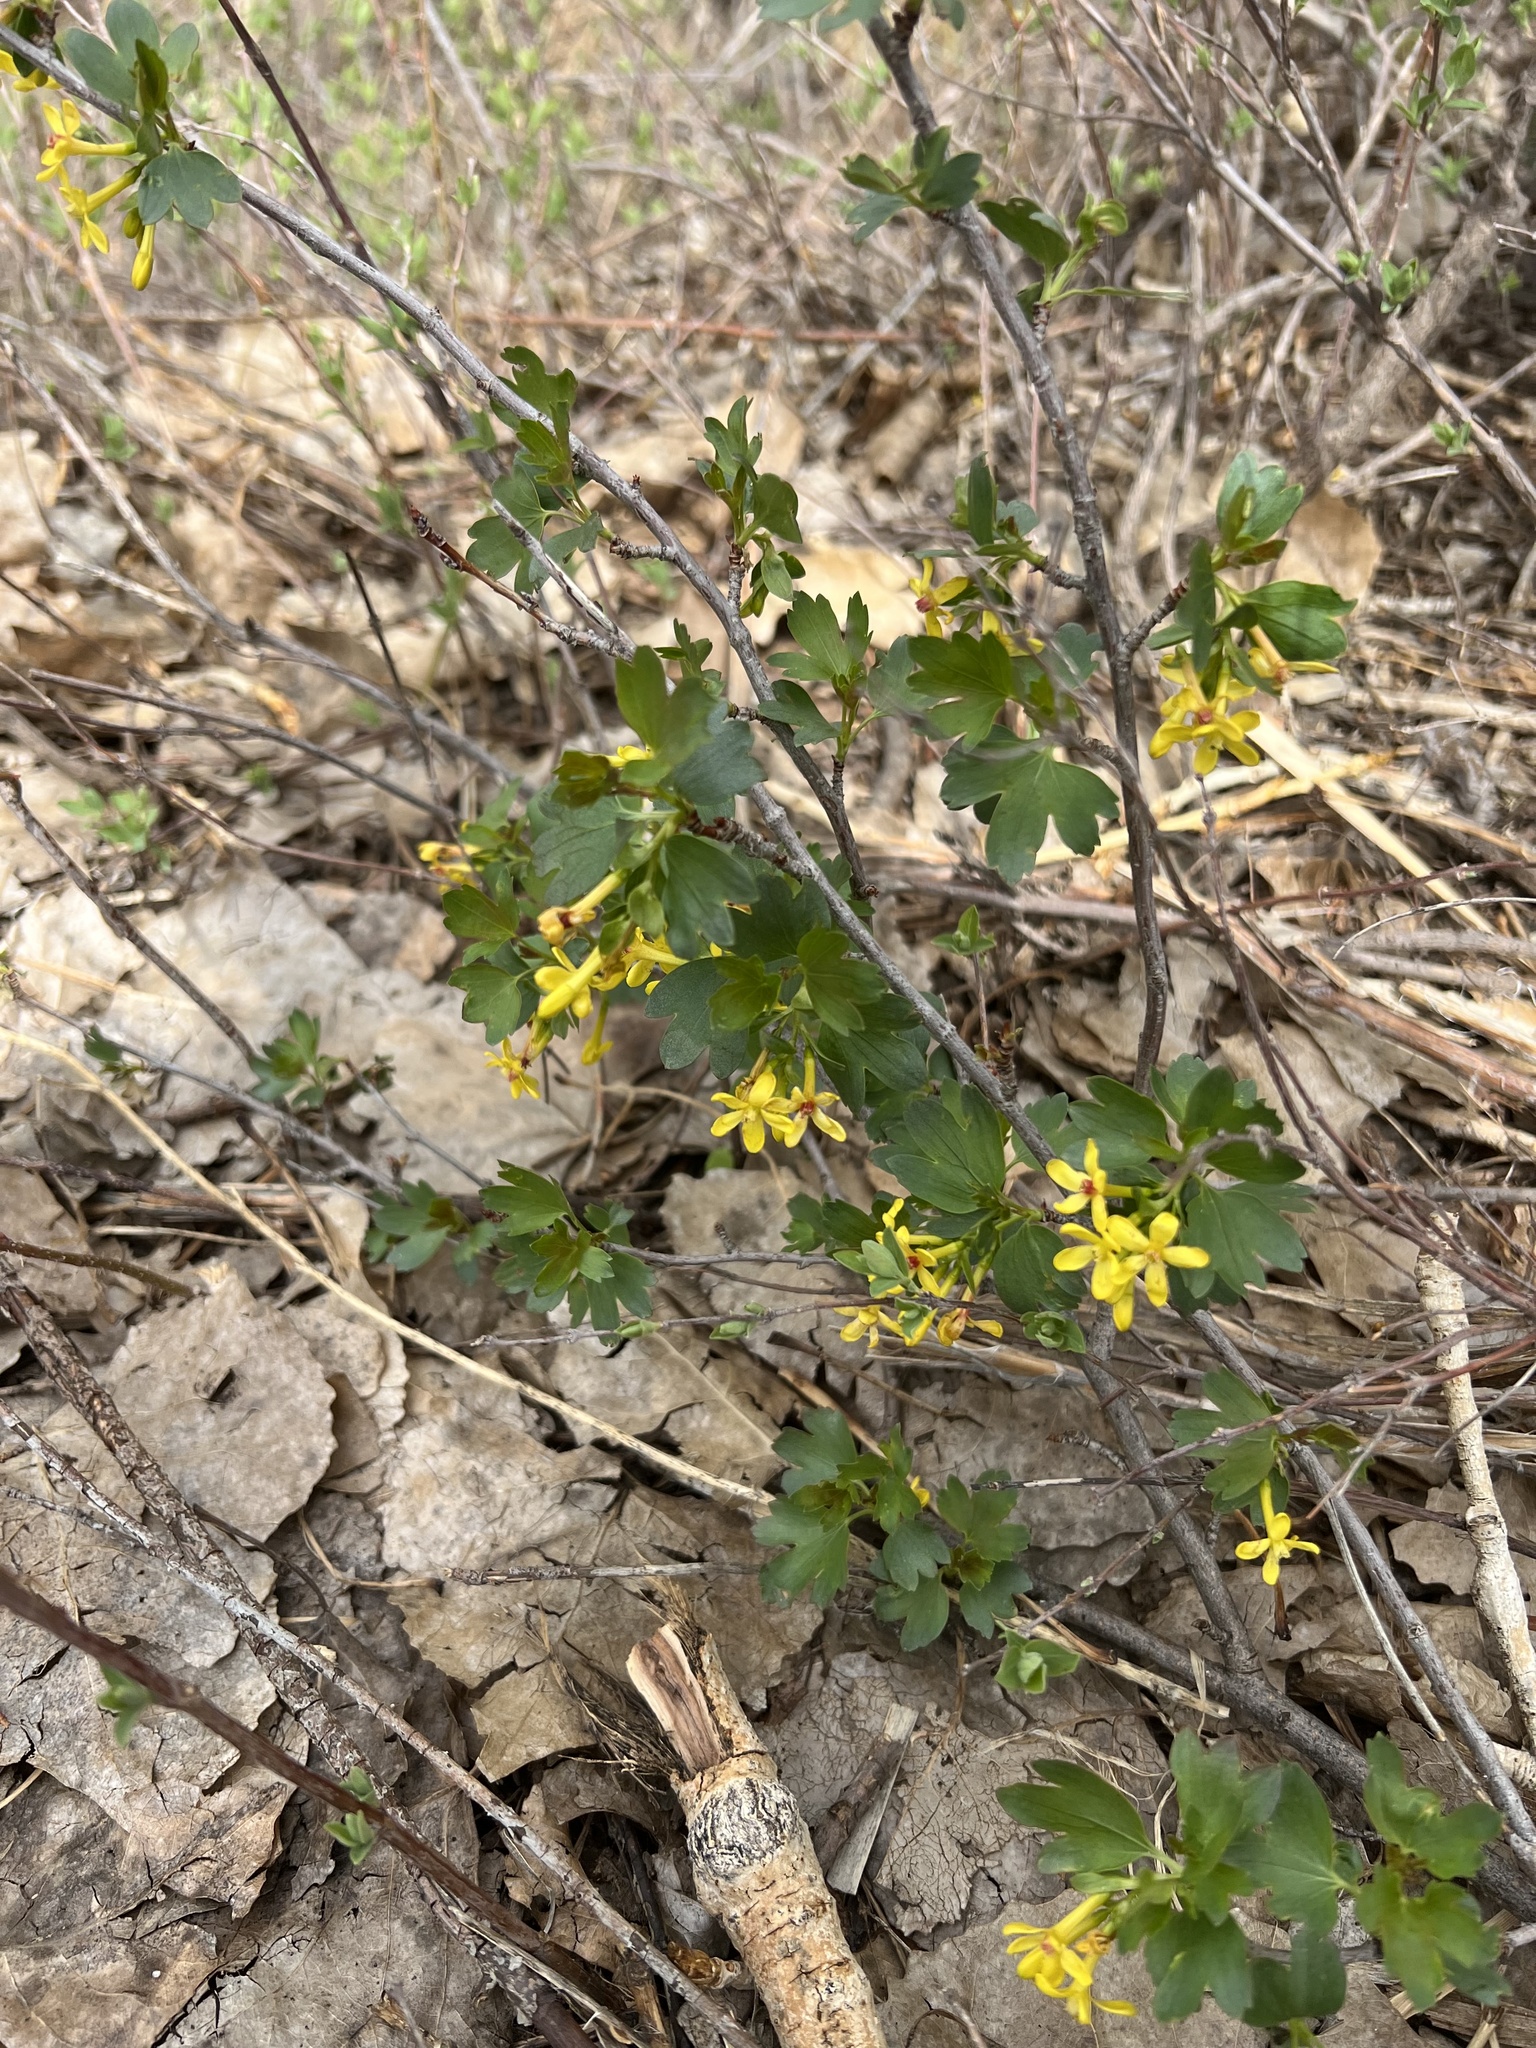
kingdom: Plantae
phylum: Tracheophyta
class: Magnoliopsida
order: Saxifragales
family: Grossulariaceae
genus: Ribes
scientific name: Ribes aureum
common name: Golden currant
